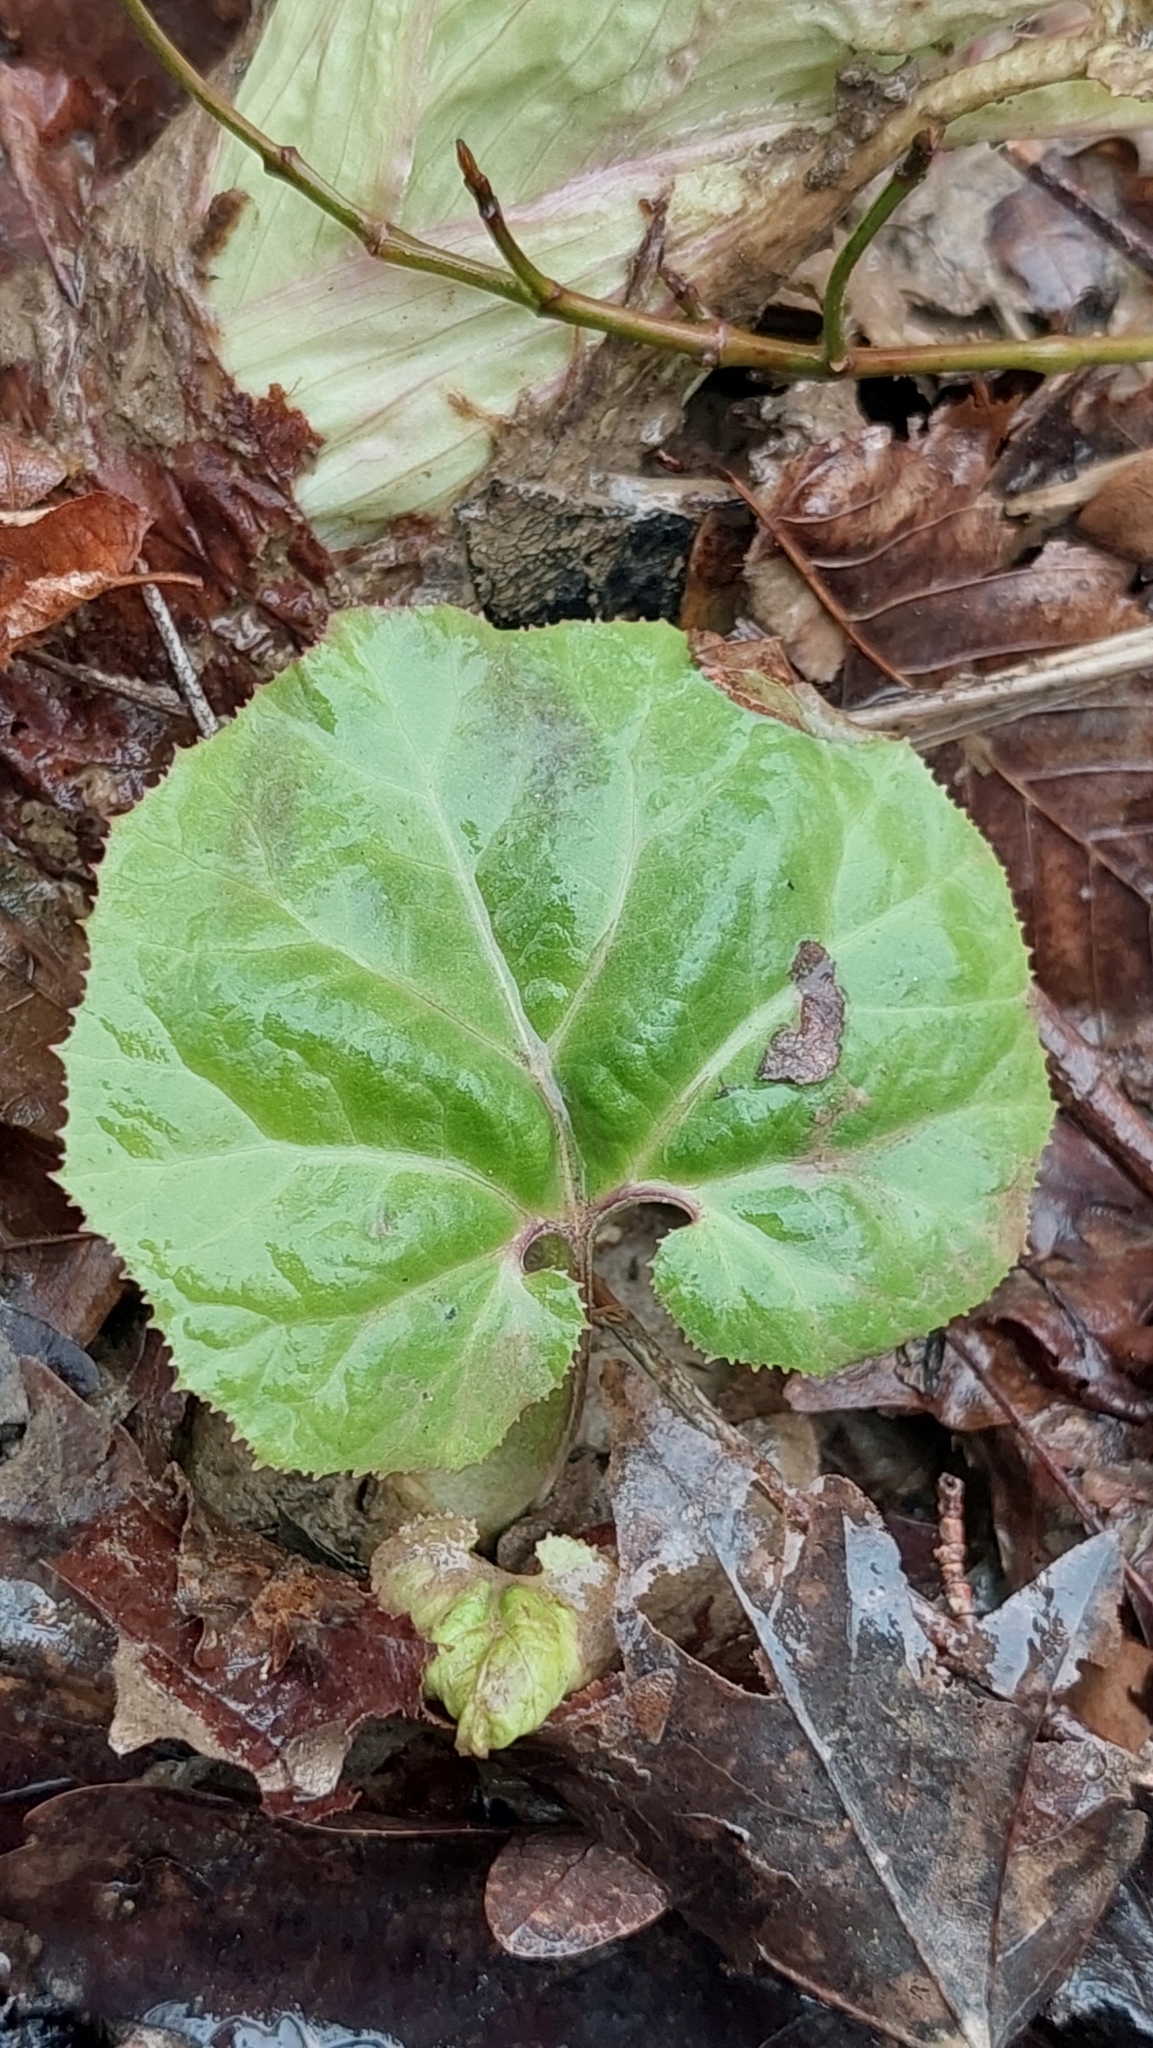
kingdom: Plantae
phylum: Tracheophyta
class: Magnoliopsida
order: Asterales
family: Asteraceae
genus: Petasites
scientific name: Petasites albus
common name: White butterbur
